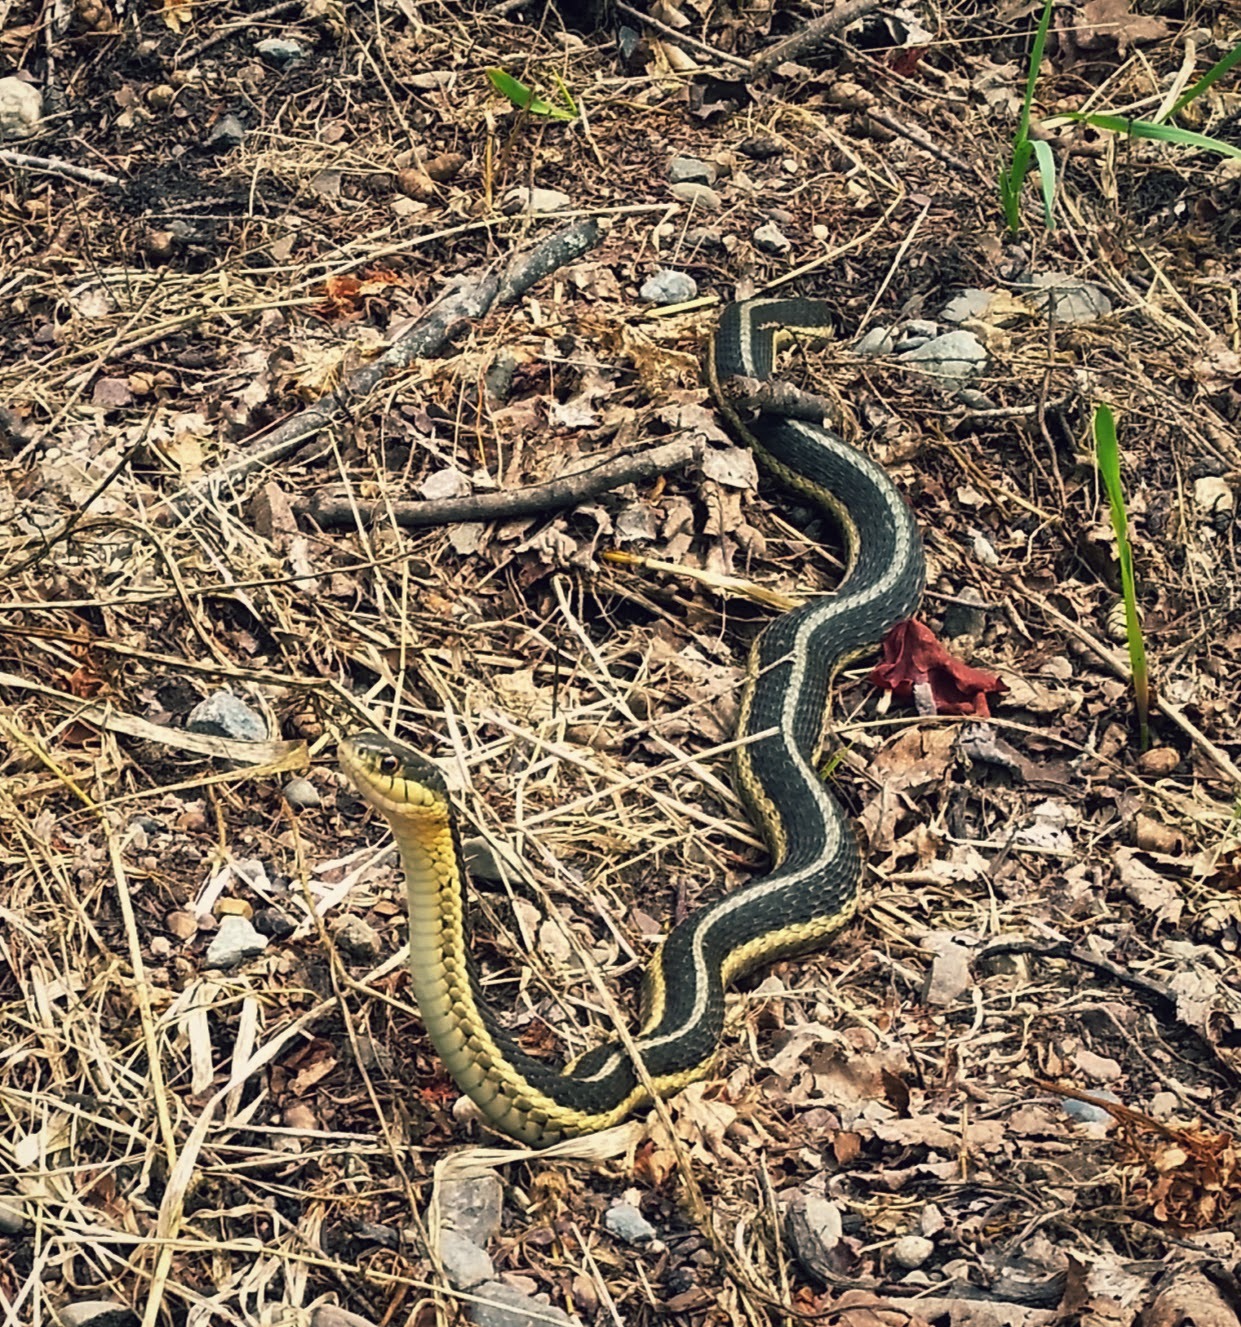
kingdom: Animalia
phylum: Chordata
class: Squamata
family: Colubridae
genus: Thamnophis
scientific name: Thamnophis sirtalis
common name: Common garter snake
